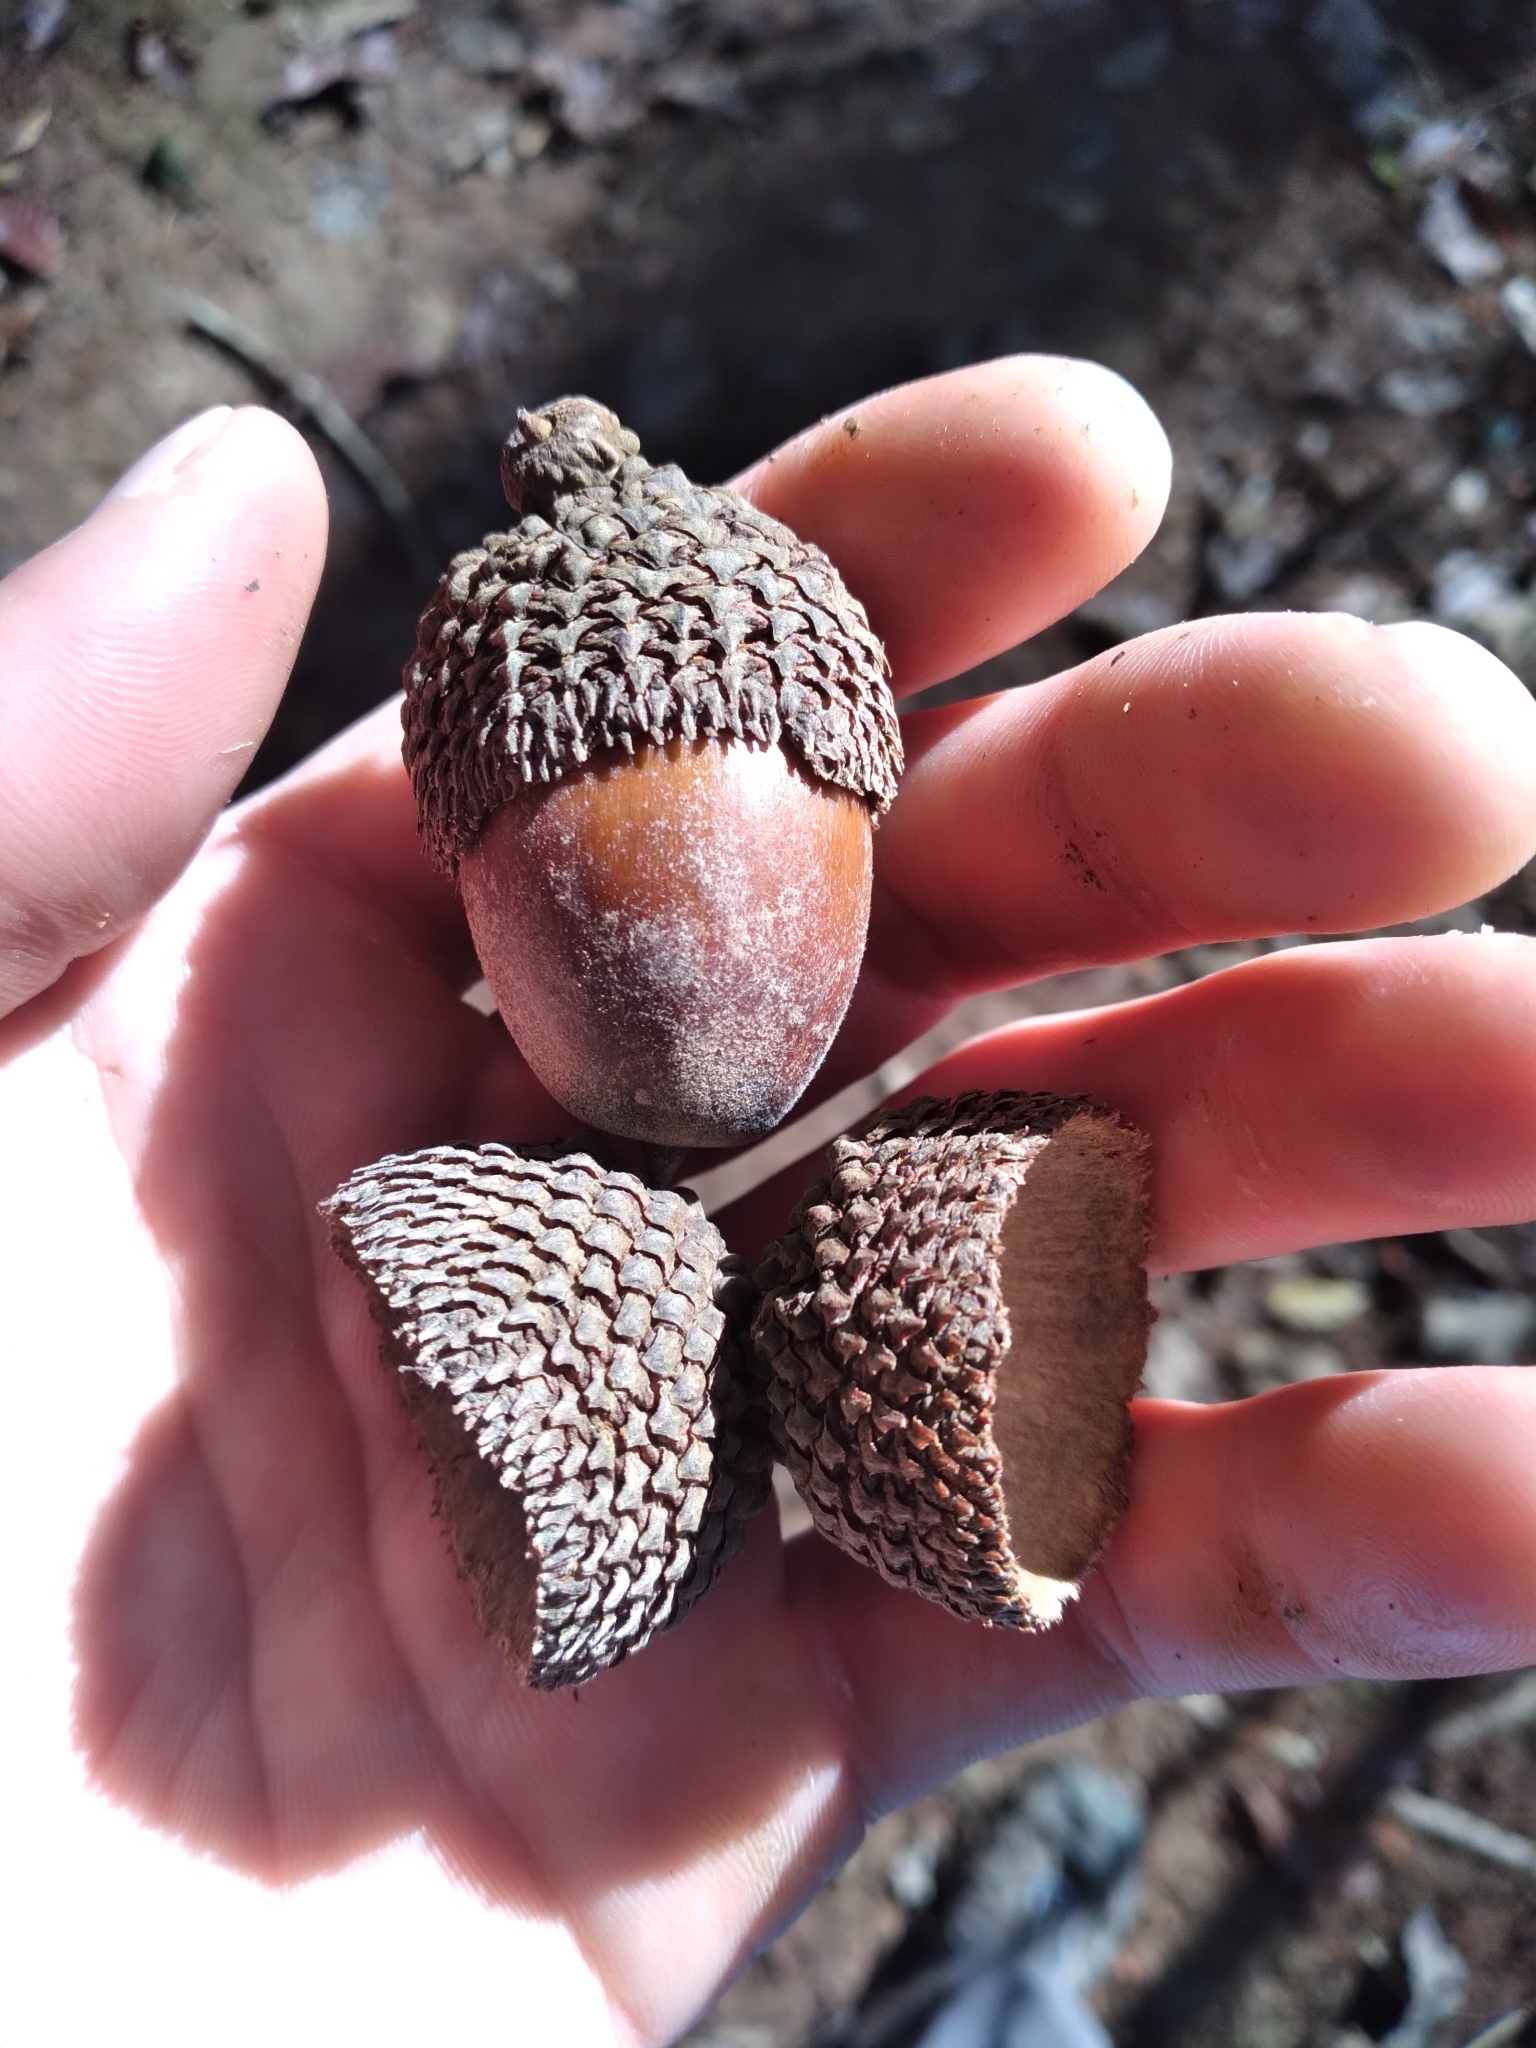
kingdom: Plantae
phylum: Tracheophyta
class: Magnoliopsida
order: Fagales
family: Fagaceae
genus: Quercus
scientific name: Quercus michauxii
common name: Swamp chestnut oak
